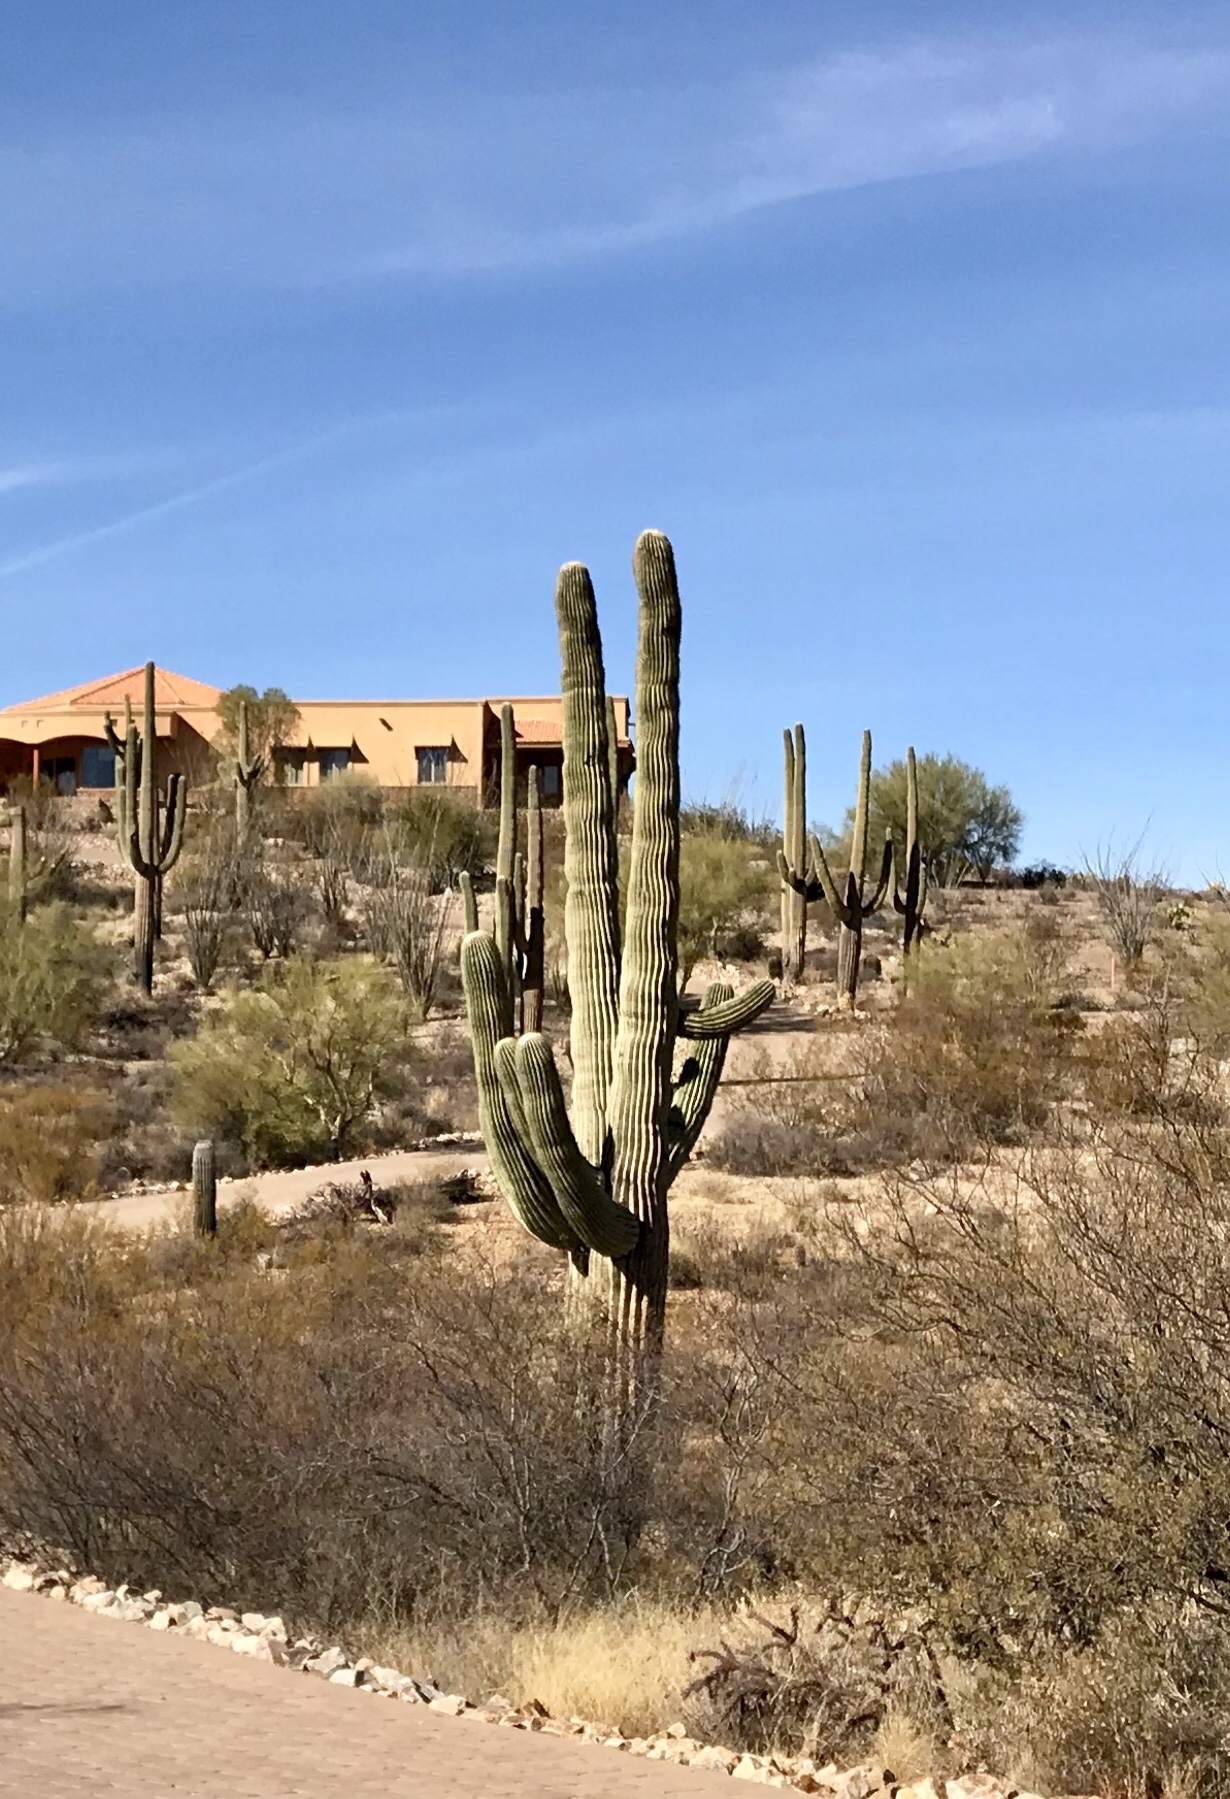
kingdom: Plantae
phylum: Tracheophyta
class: Magnoliopsida
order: Caryophyllales
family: Cactaceae
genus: Carnegiea
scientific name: Carnegiea gigantea
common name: Saguaro
